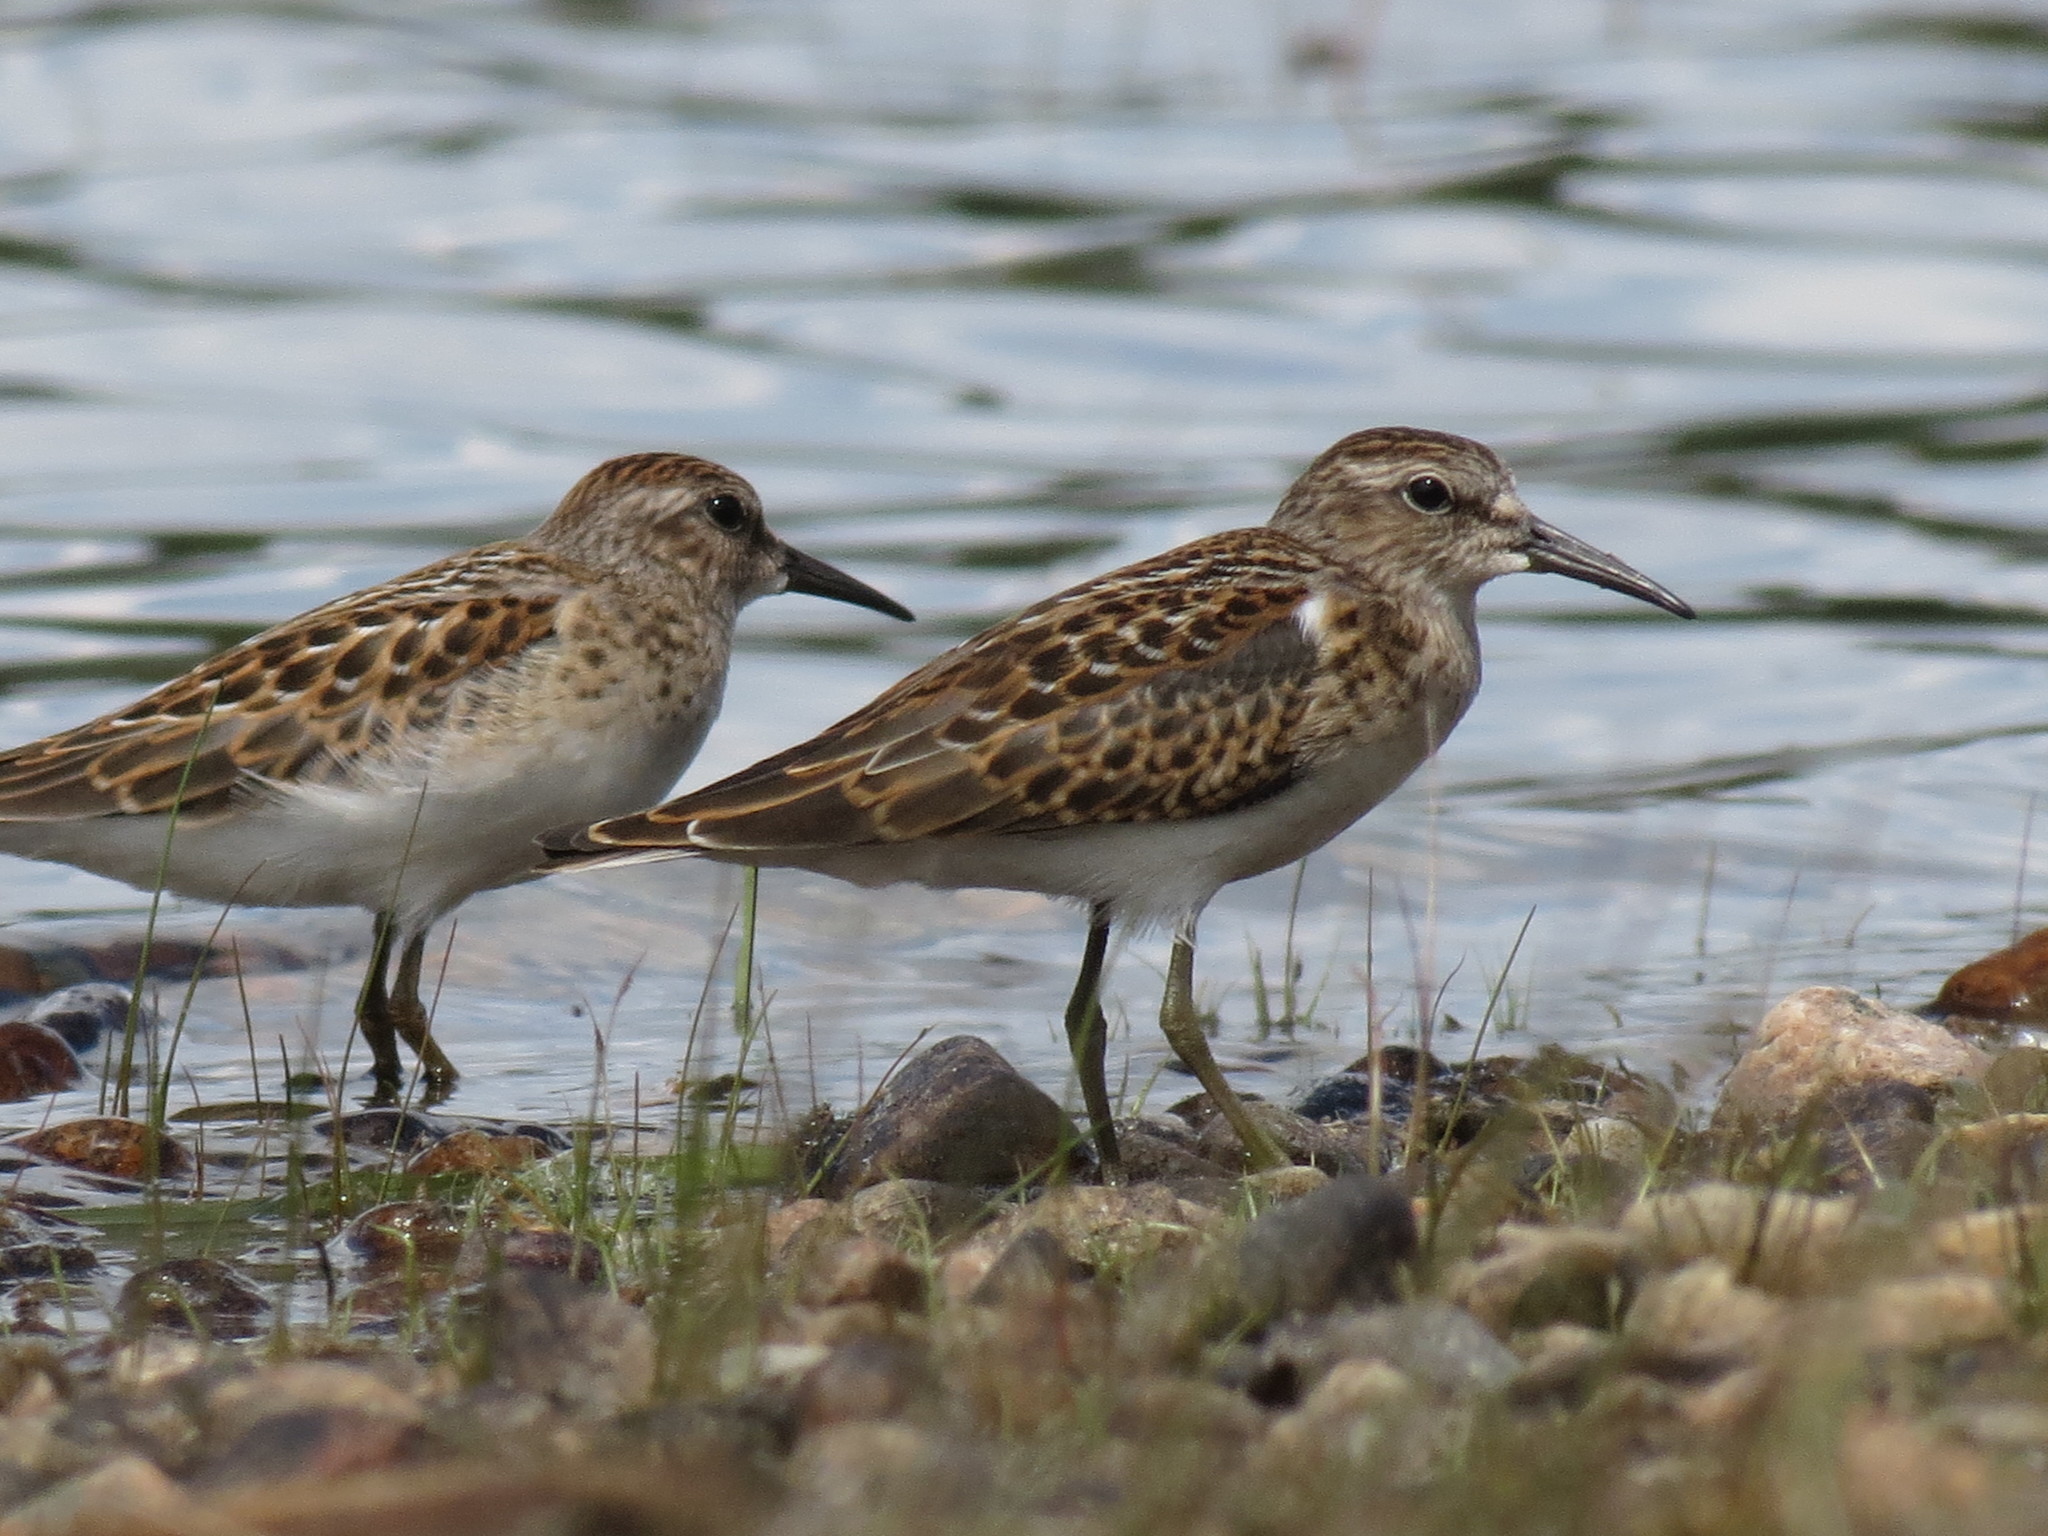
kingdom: Animalia
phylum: Chordata
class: Aves
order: Charadriiformes
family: Scolopacidae
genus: Calidris
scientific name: Calidris minutilla
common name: Least sandpiper
